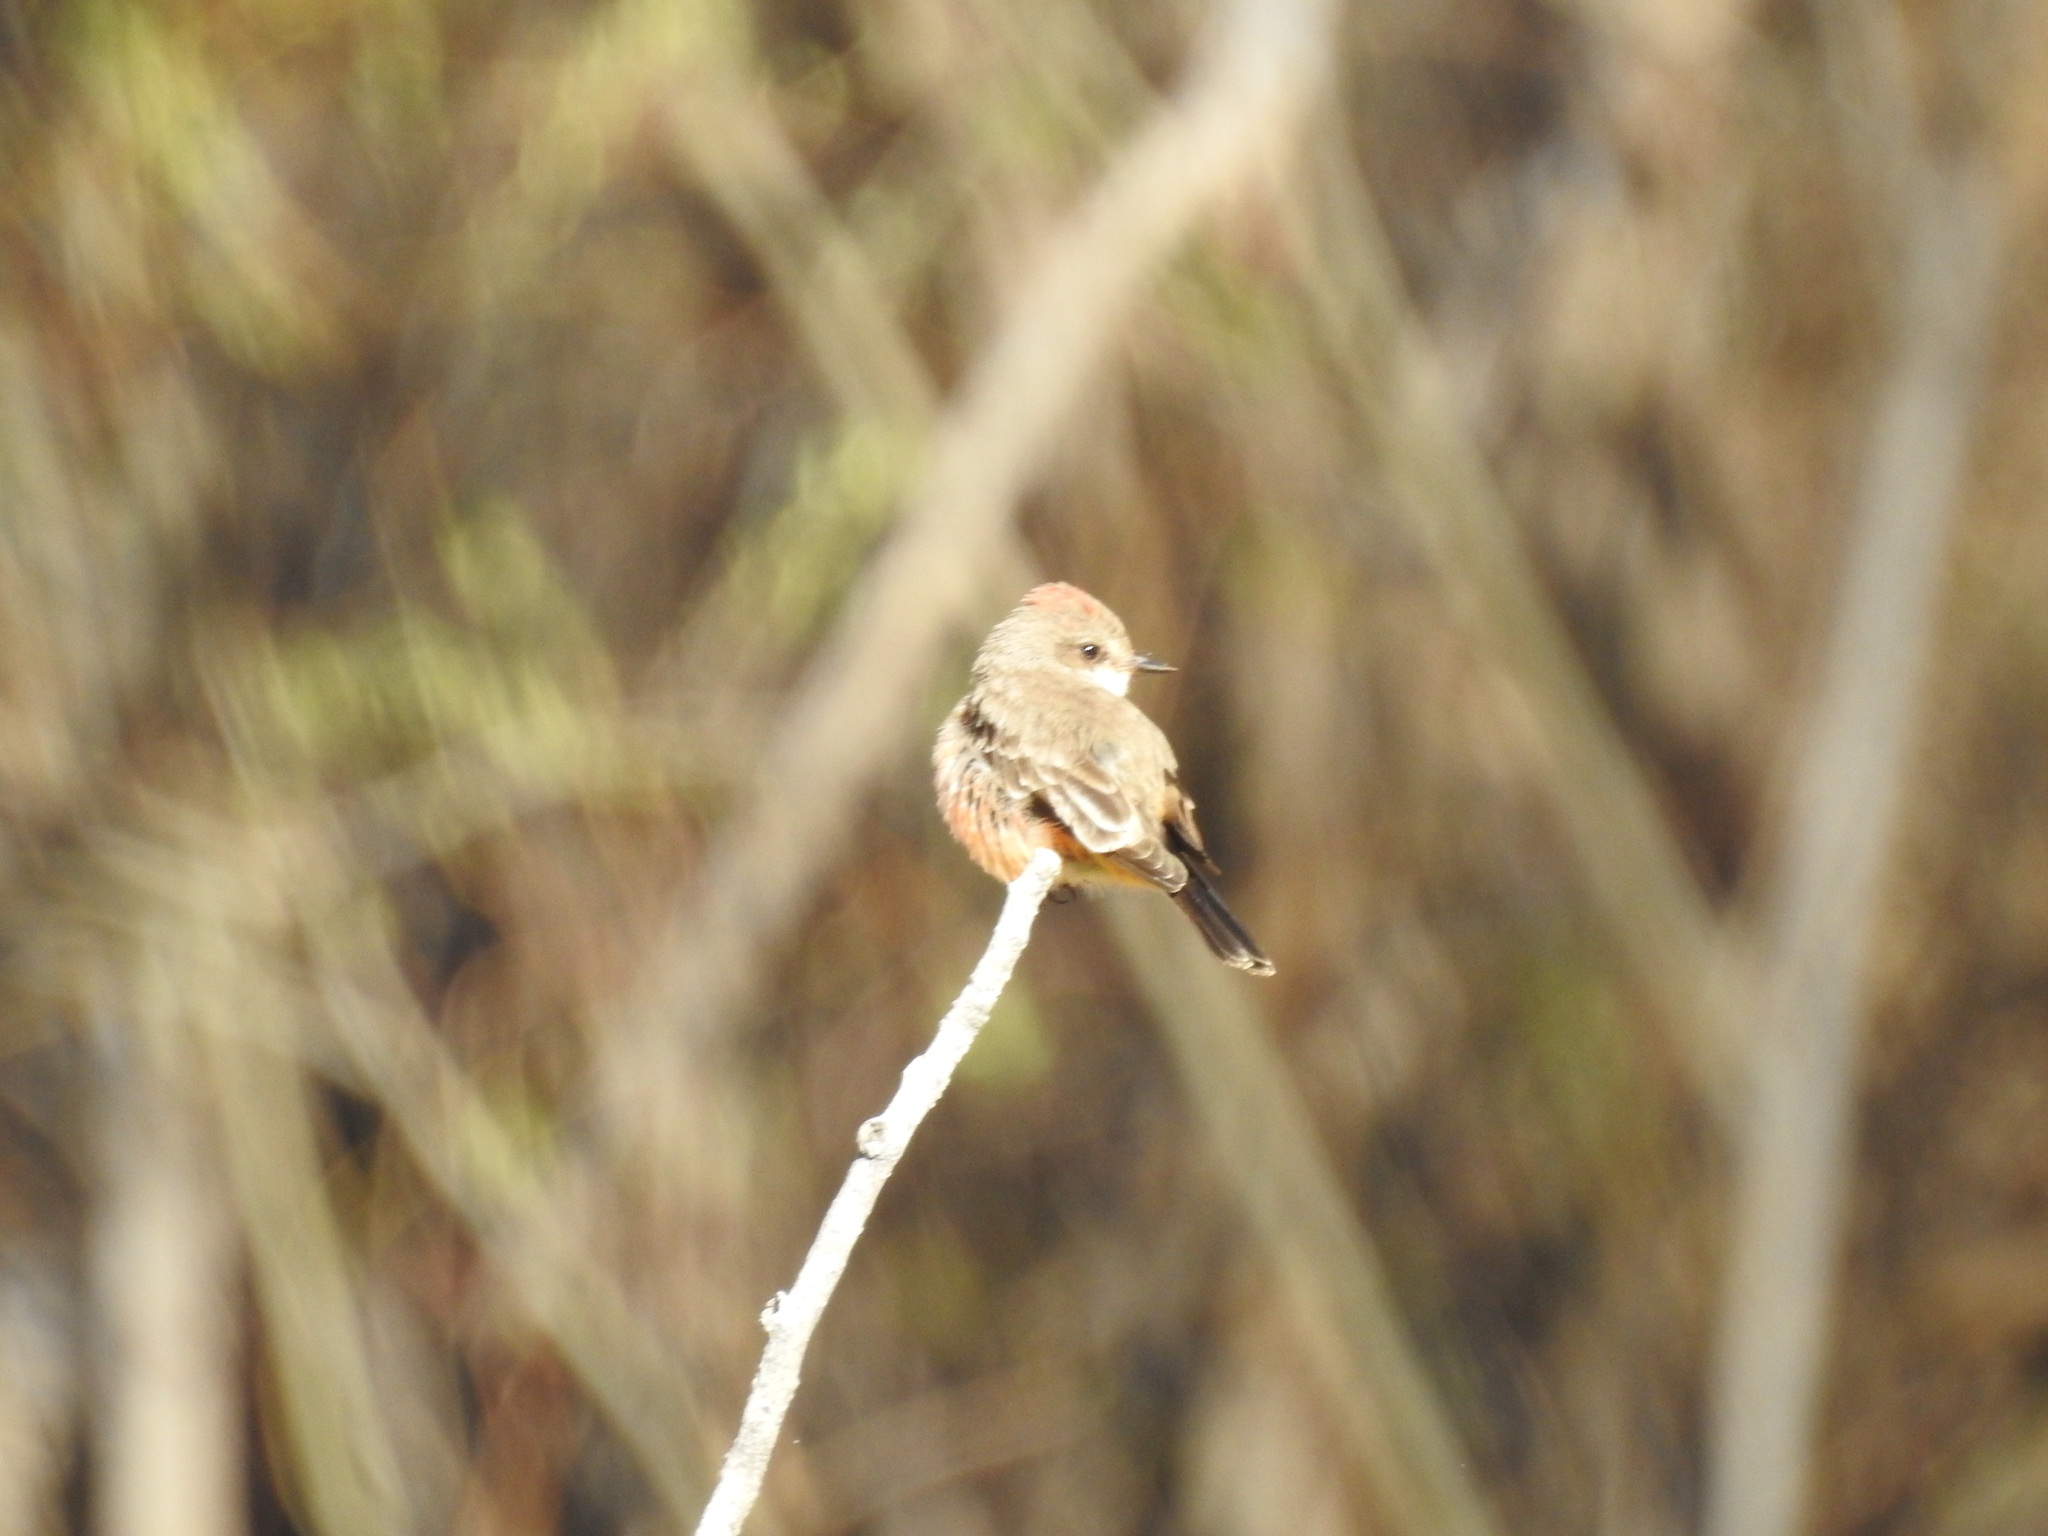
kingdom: Animalia
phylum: Chordata
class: Aves
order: Passeriformes
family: Tyrannidae
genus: Pyrocephalus
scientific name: Pyrocephalus rubinus
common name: Vermilion flycatcher
